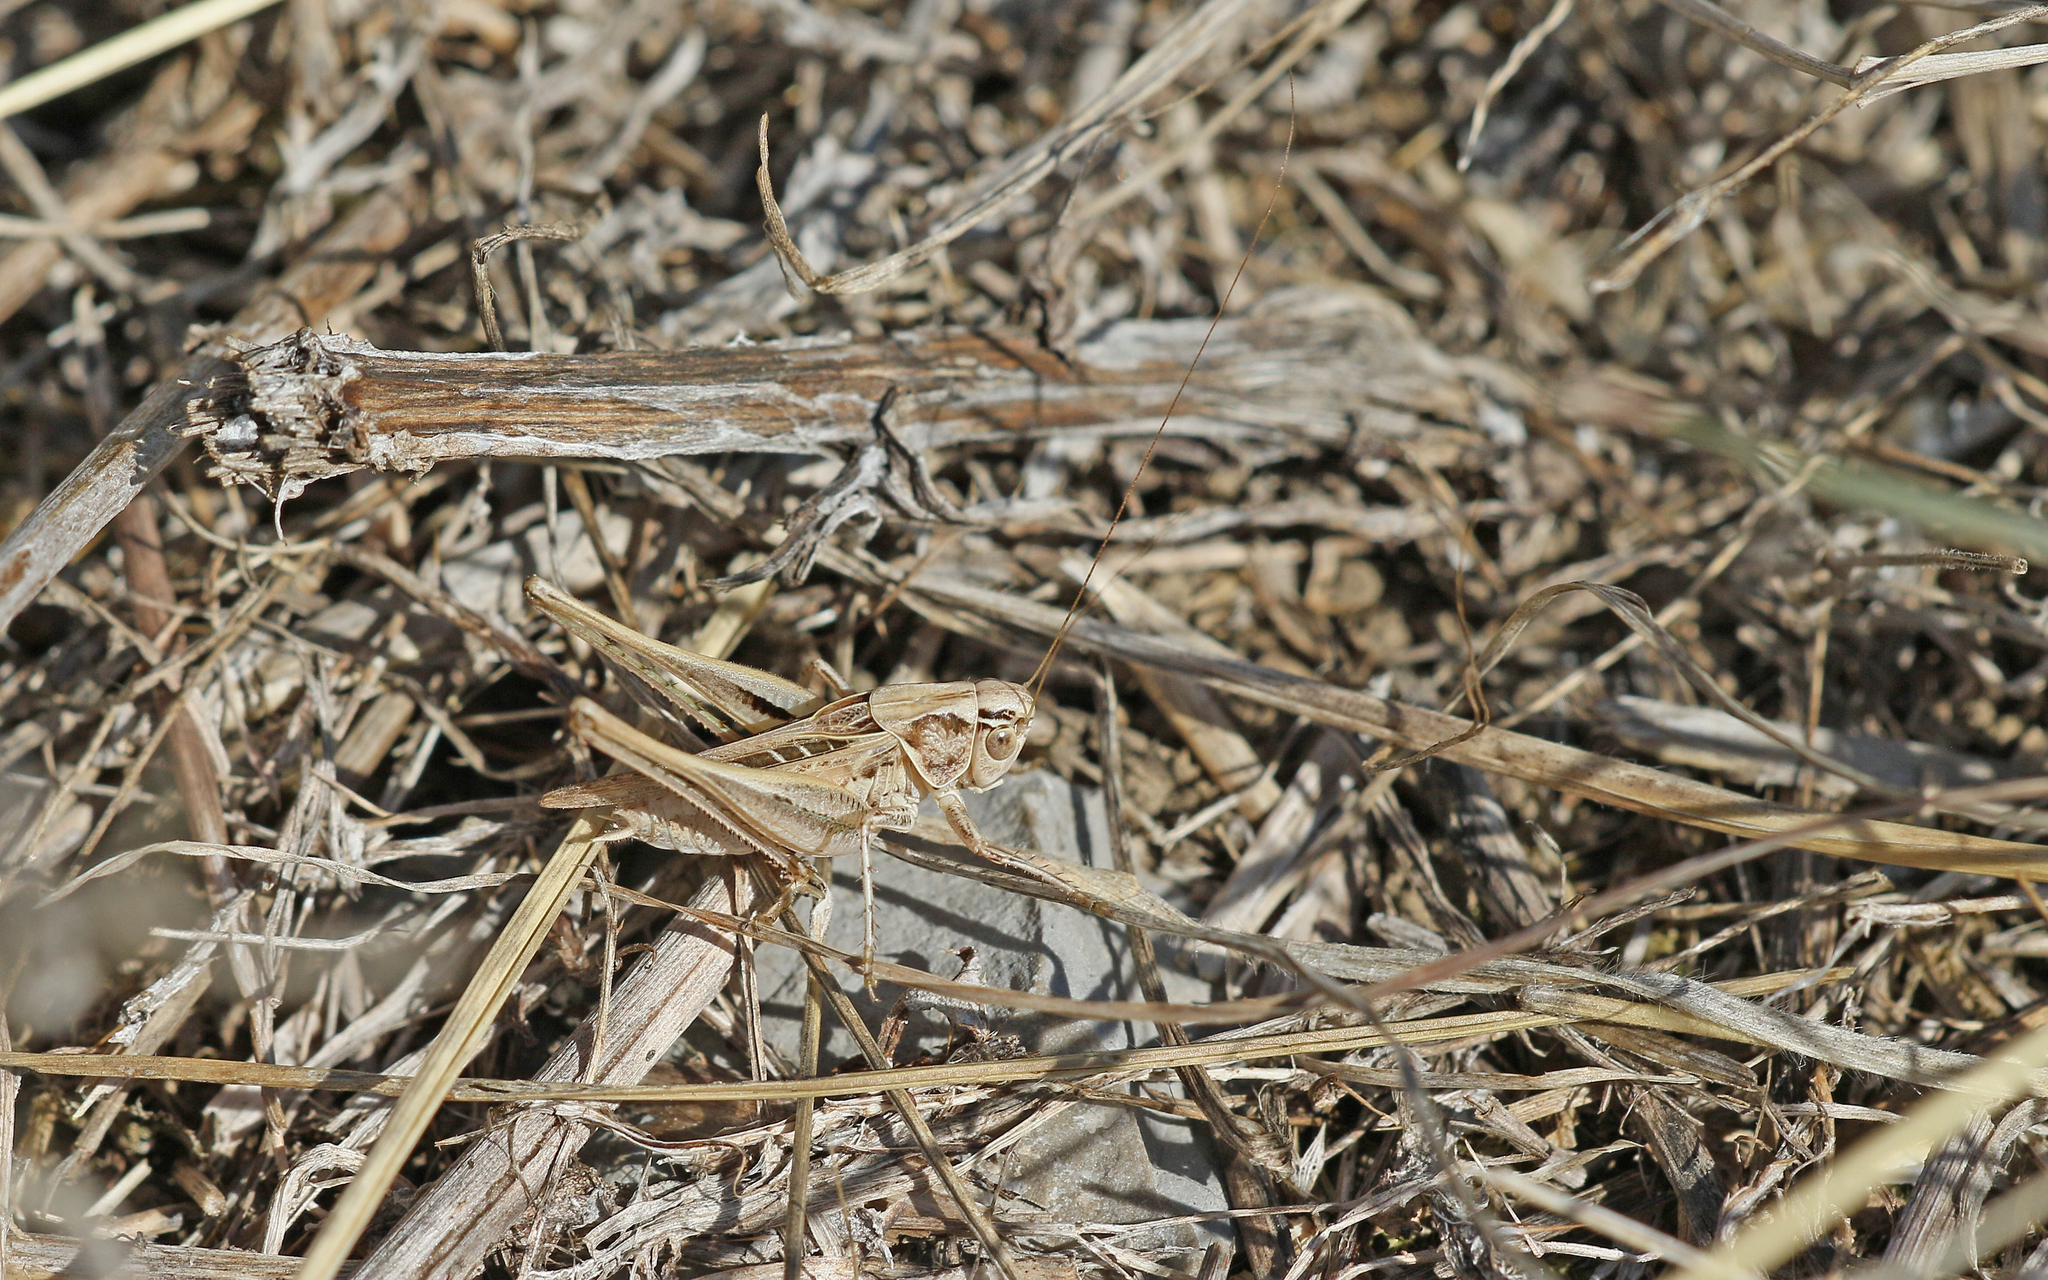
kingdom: Animalia
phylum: Arthropoda
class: Insecta
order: Orthoptera
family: Tettigoniidae
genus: Tessellana
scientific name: Tessellana tessellata
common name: Grasshopper
